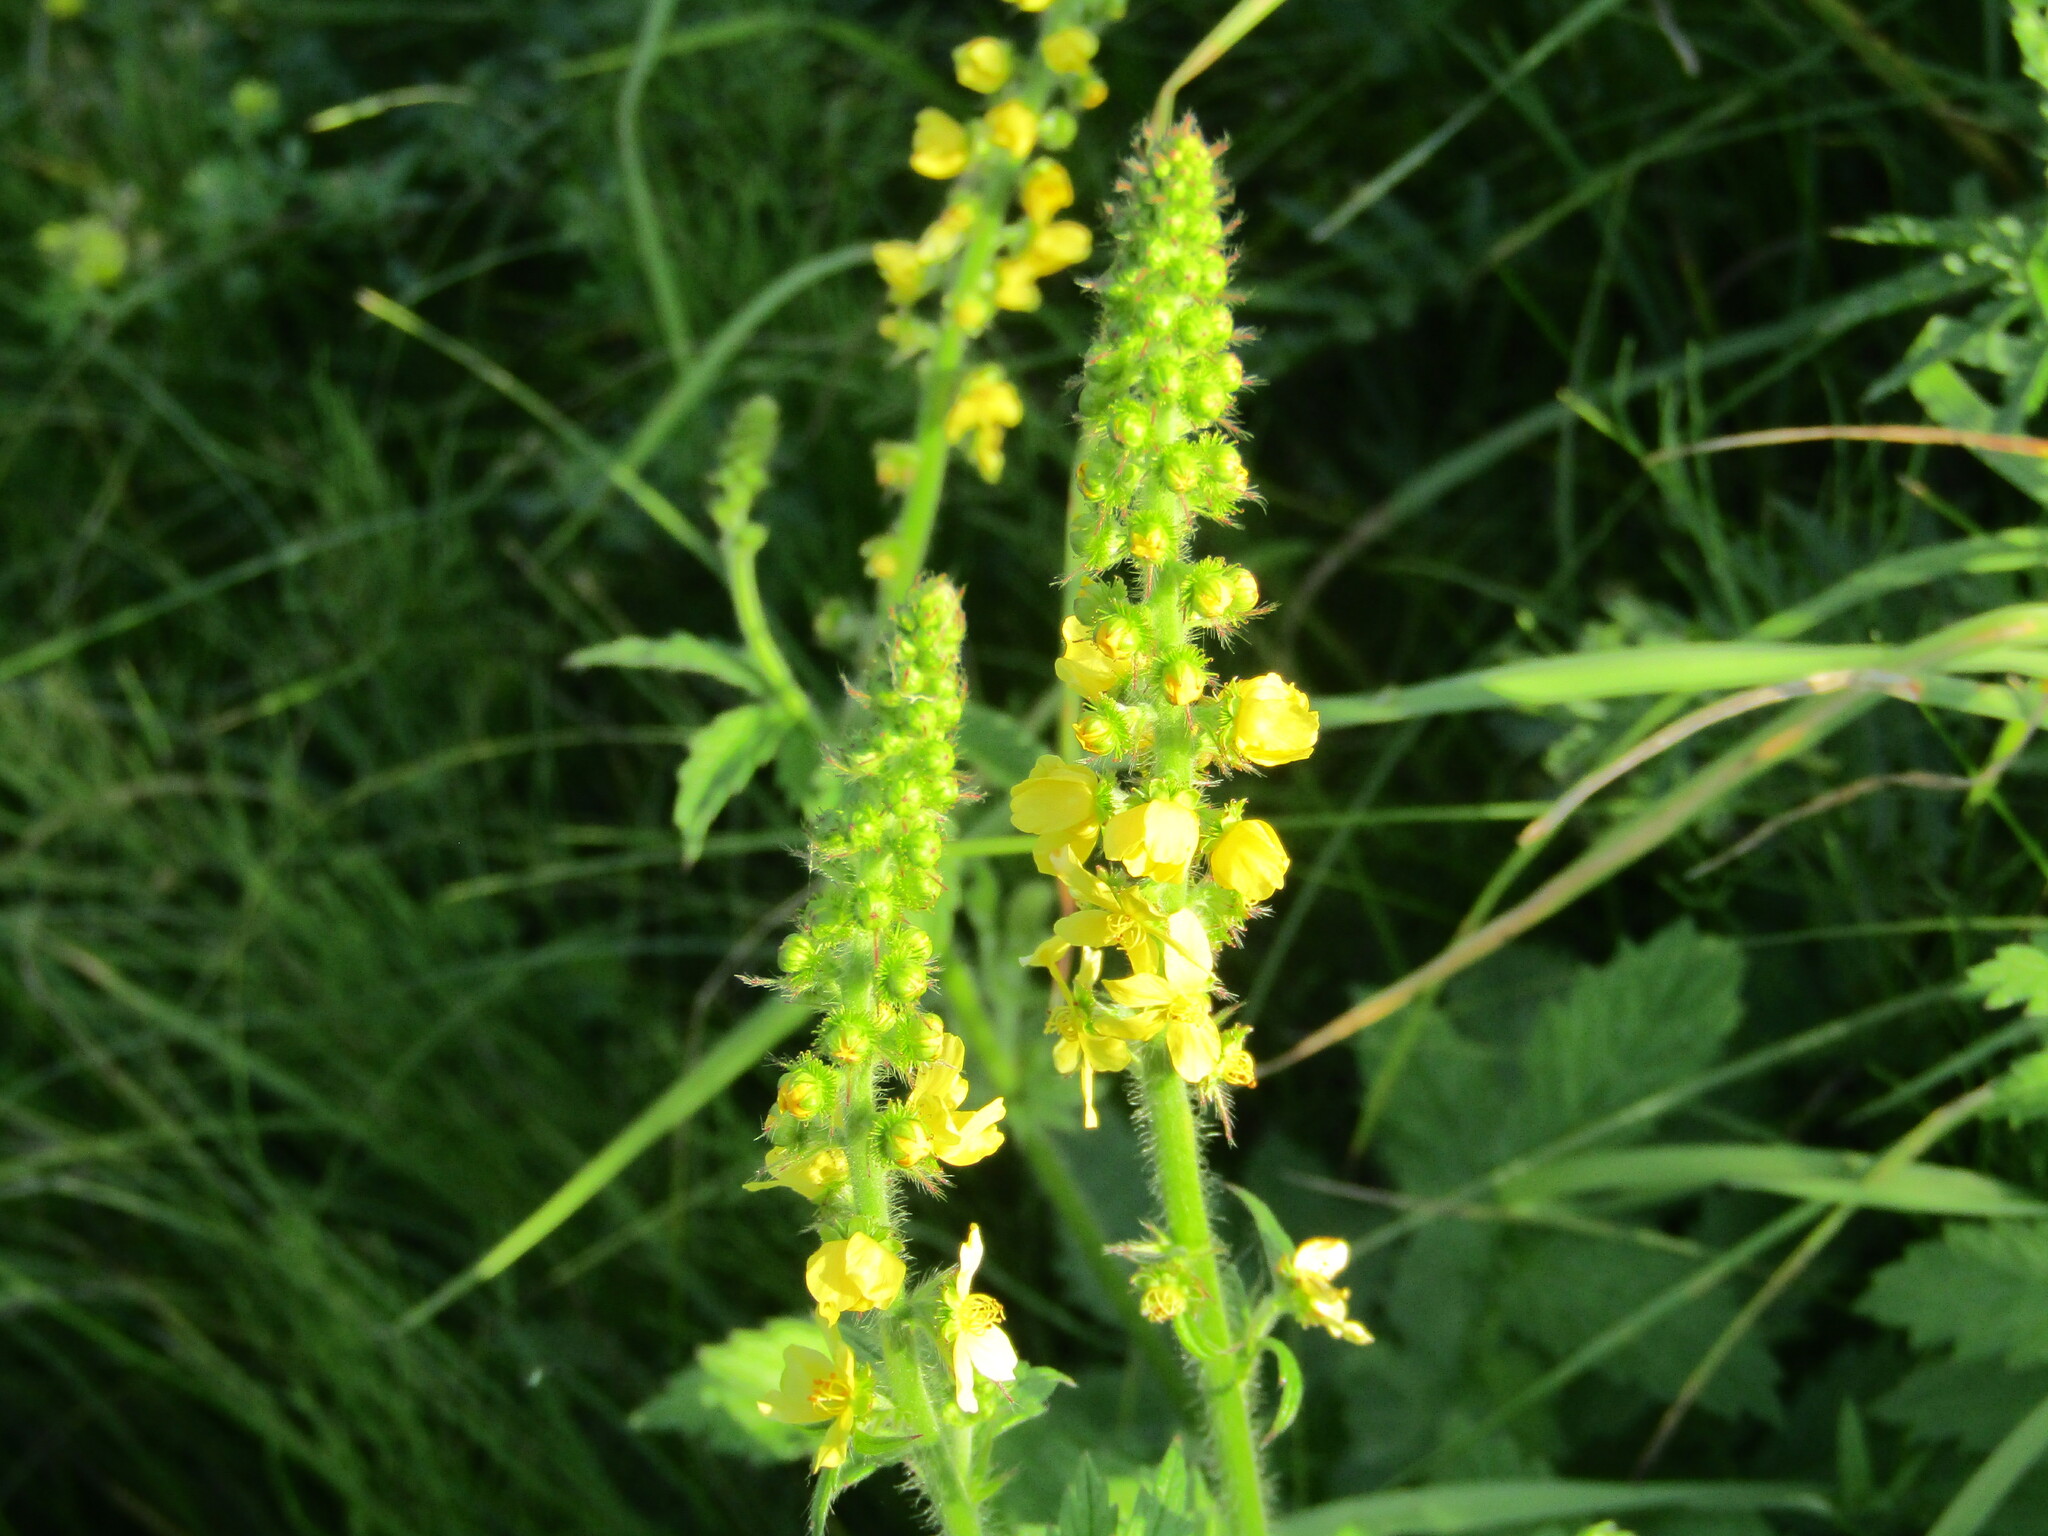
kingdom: Plantae
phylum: Tracheophyta
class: Magnoliopsida
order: Rosales
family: Rosaceae
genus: Agrimonia
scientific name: Agrimonia eupatoria
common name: Agrimony
